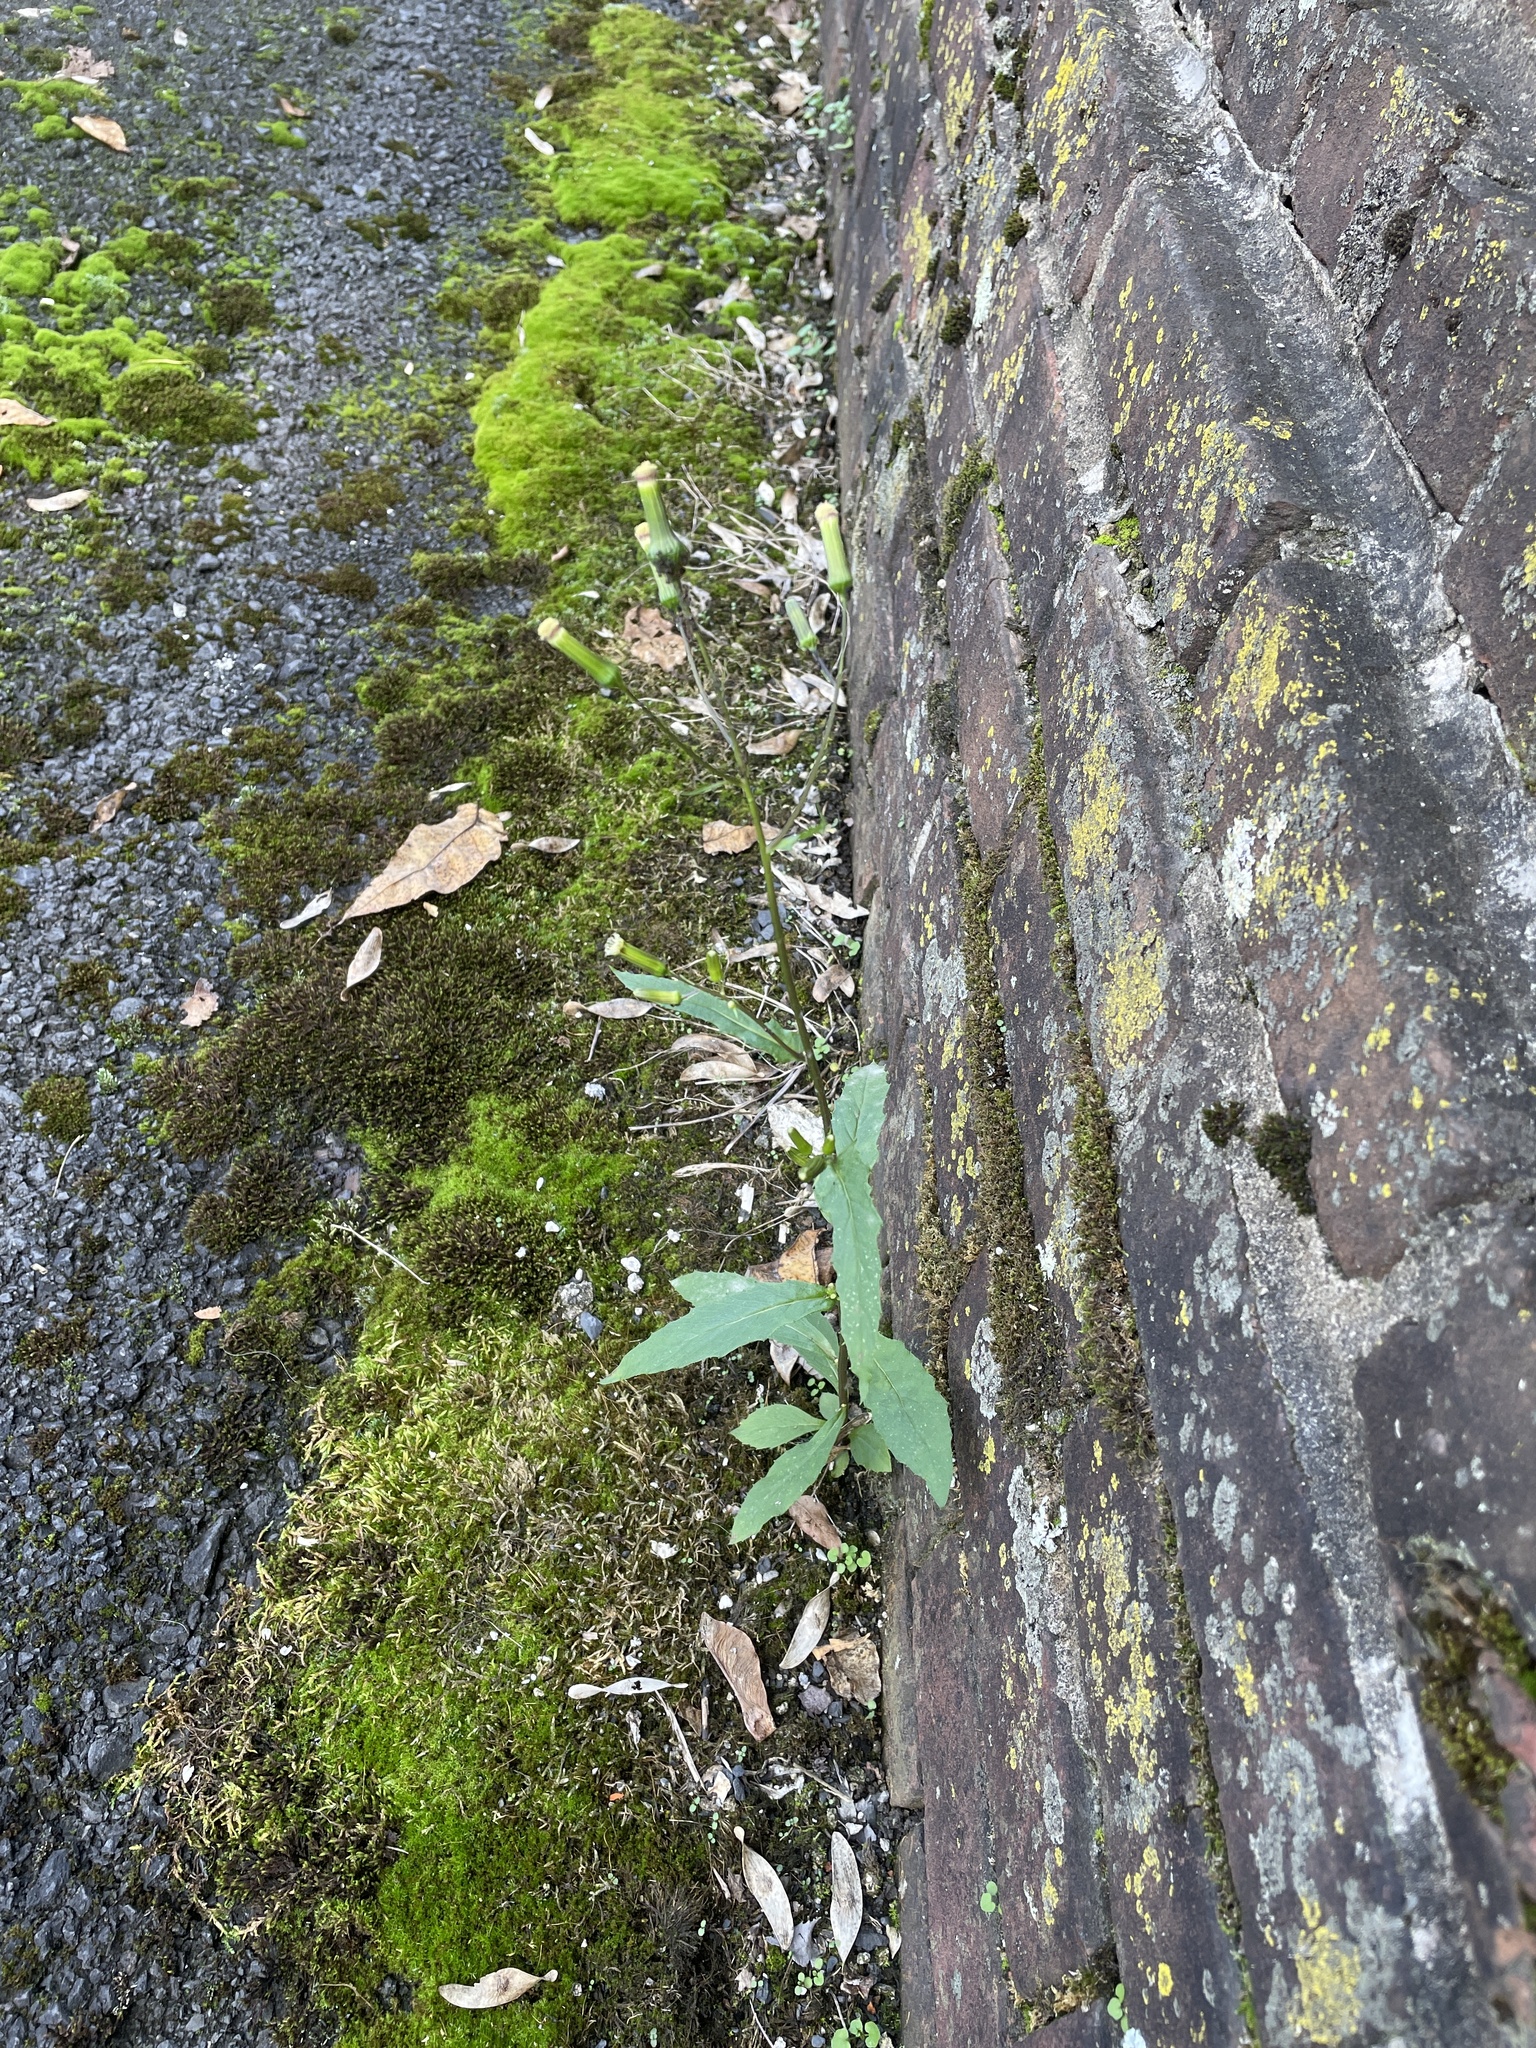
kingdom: Plantae
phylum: Tracheophyta
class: Magnoliopsida
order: Asterales
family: Asteraceae
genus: Erechtites
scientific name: Erechtites hieraciifolius
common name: American burnweed
